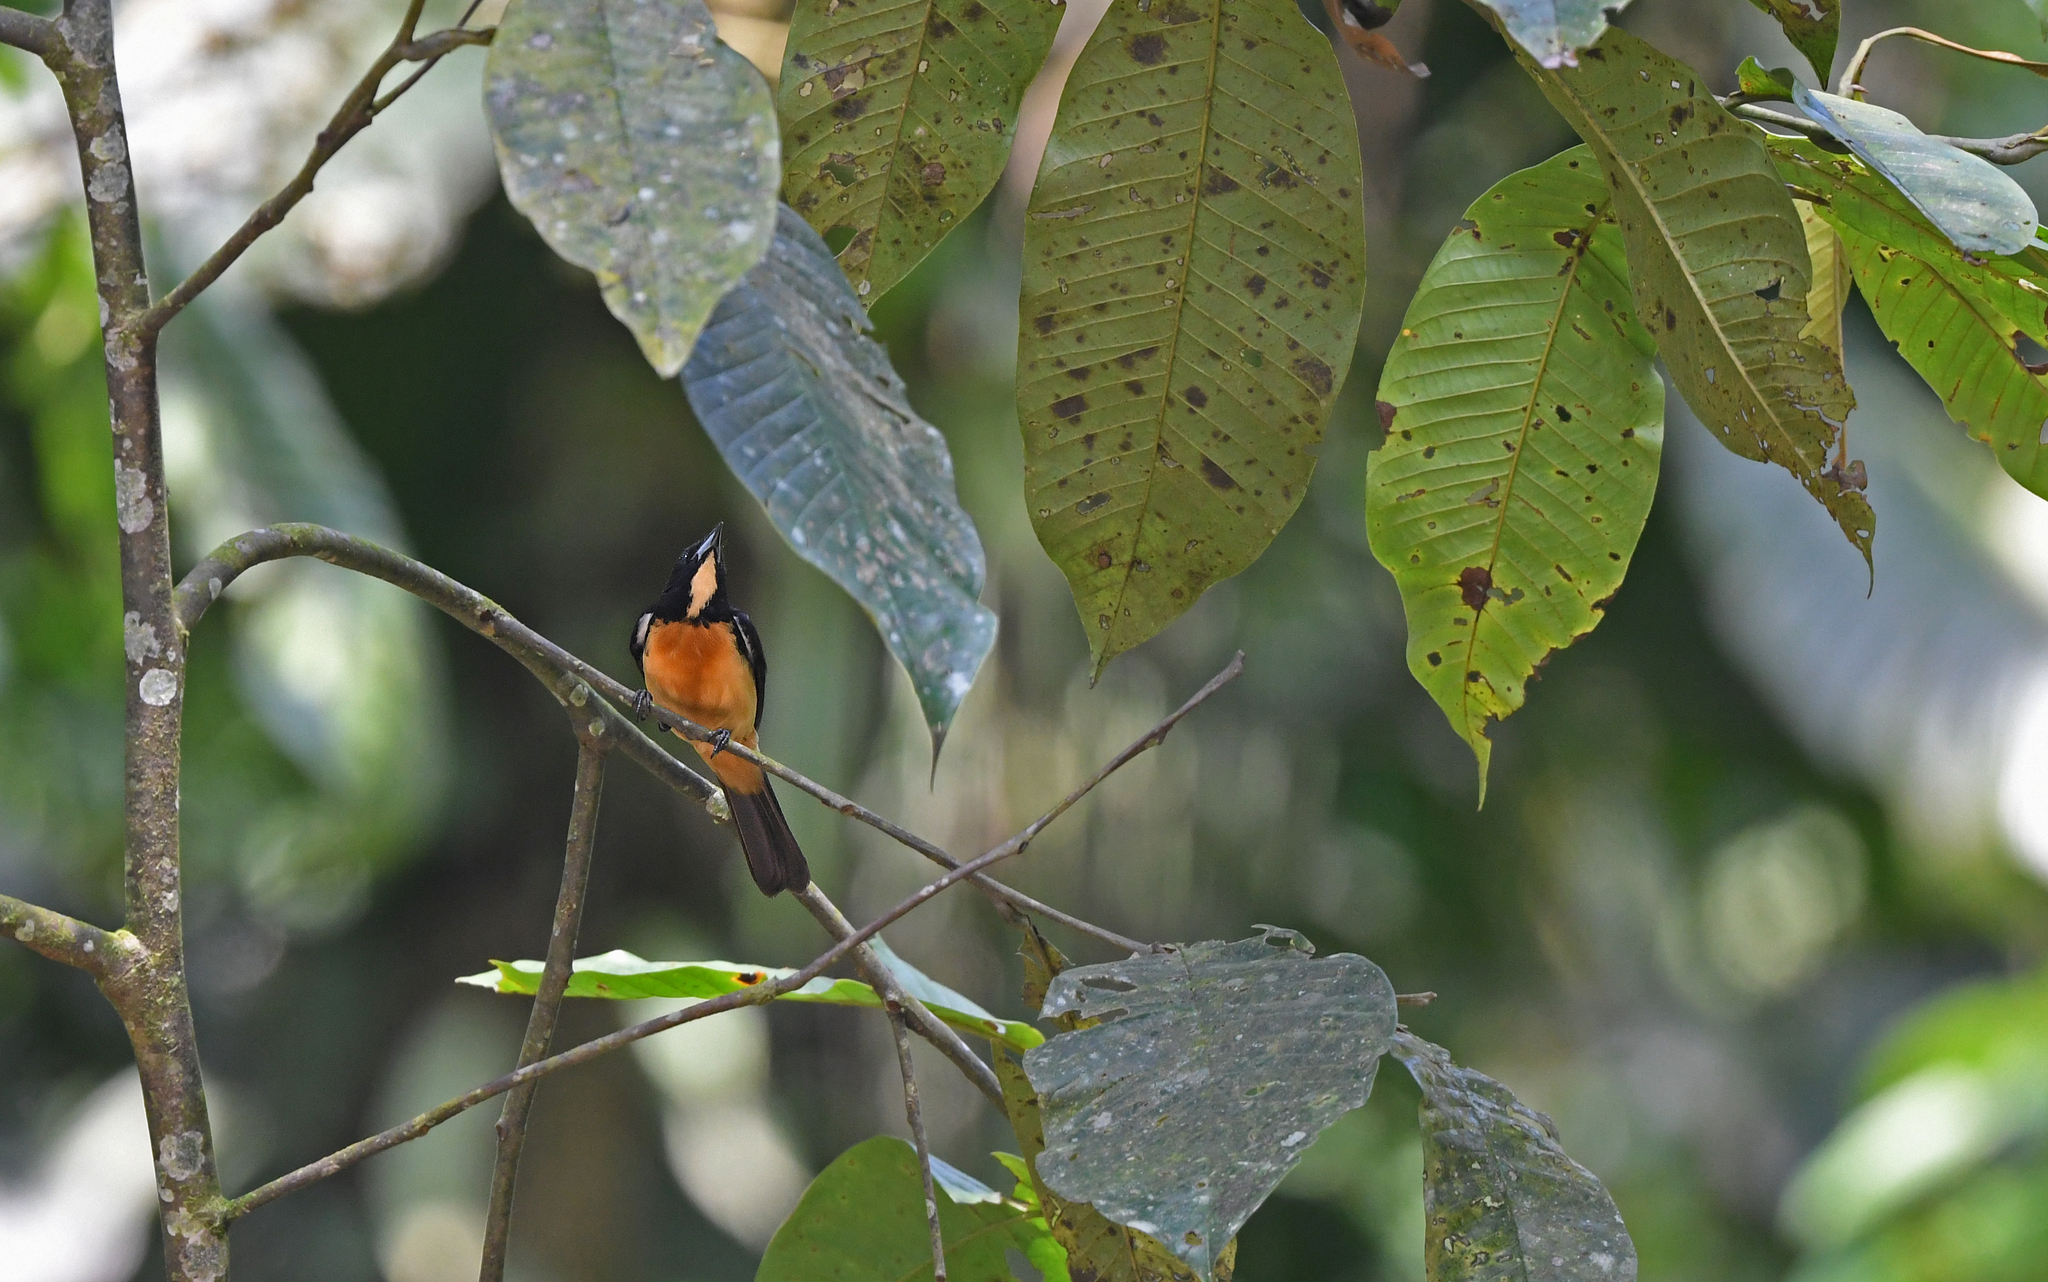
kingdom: Animalia
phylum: Chordata
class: Aves
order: Passeriformes
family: Thraupidae
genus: Loriotus
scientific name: Loriotus rufiventer
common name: Yellow-crested tanager
